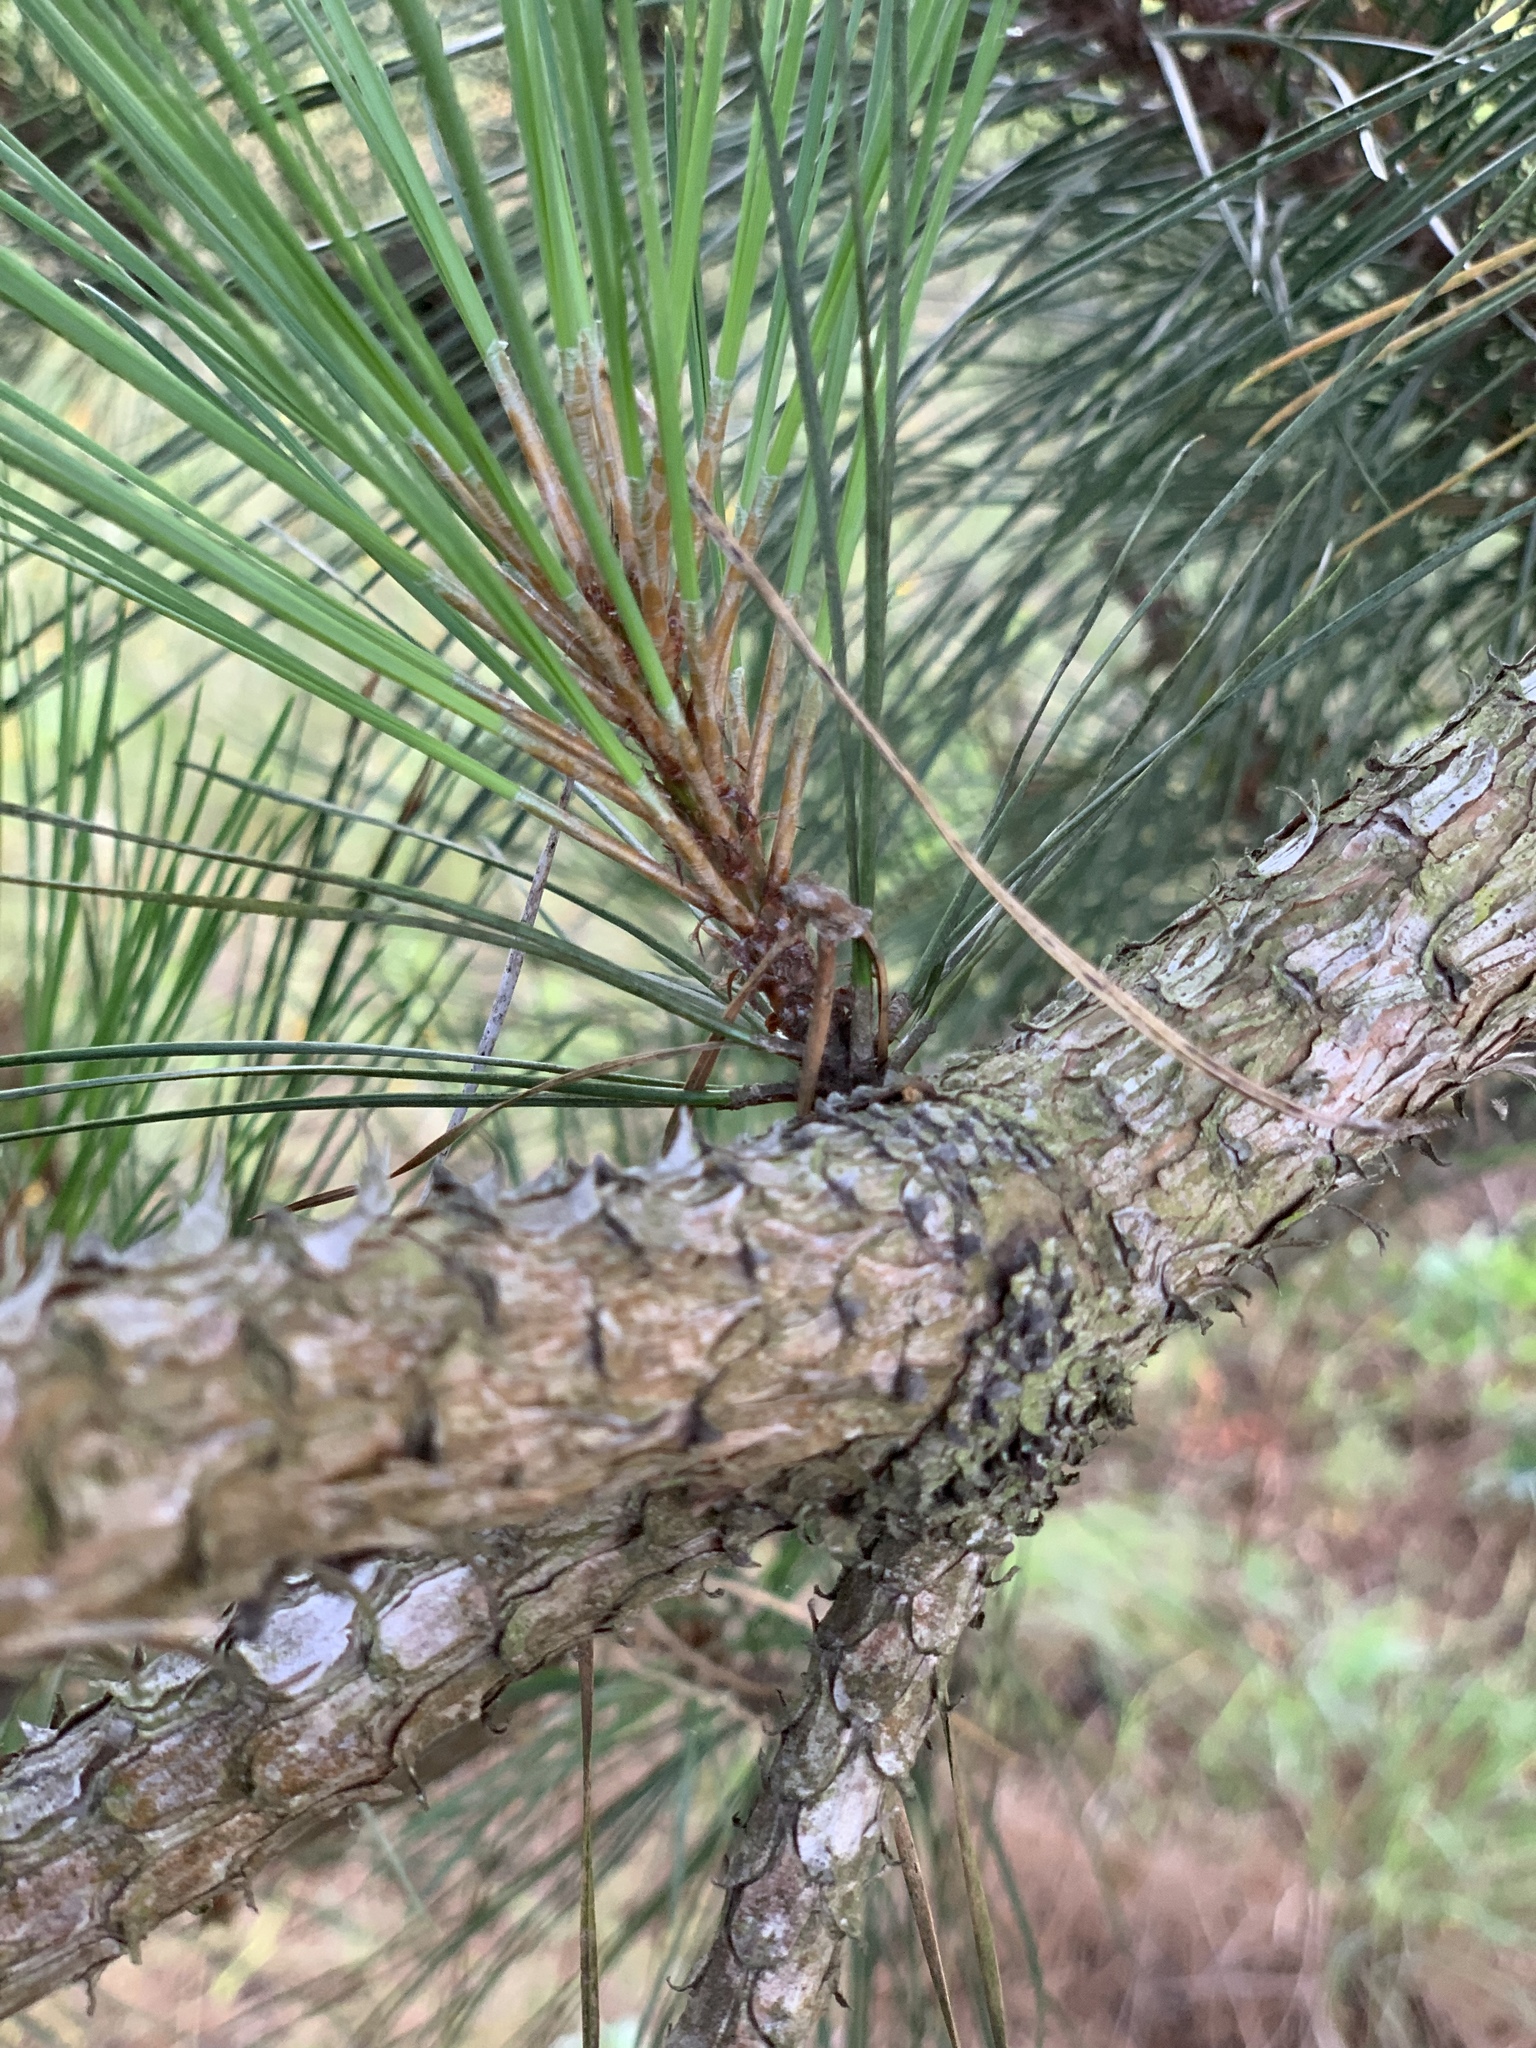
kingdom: Plantae
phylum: Tracheophyta
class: Pinopsida
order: Pinales
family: Pinaceae
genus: Pinus
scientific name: Pinus taeda
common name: Loblolly pine
